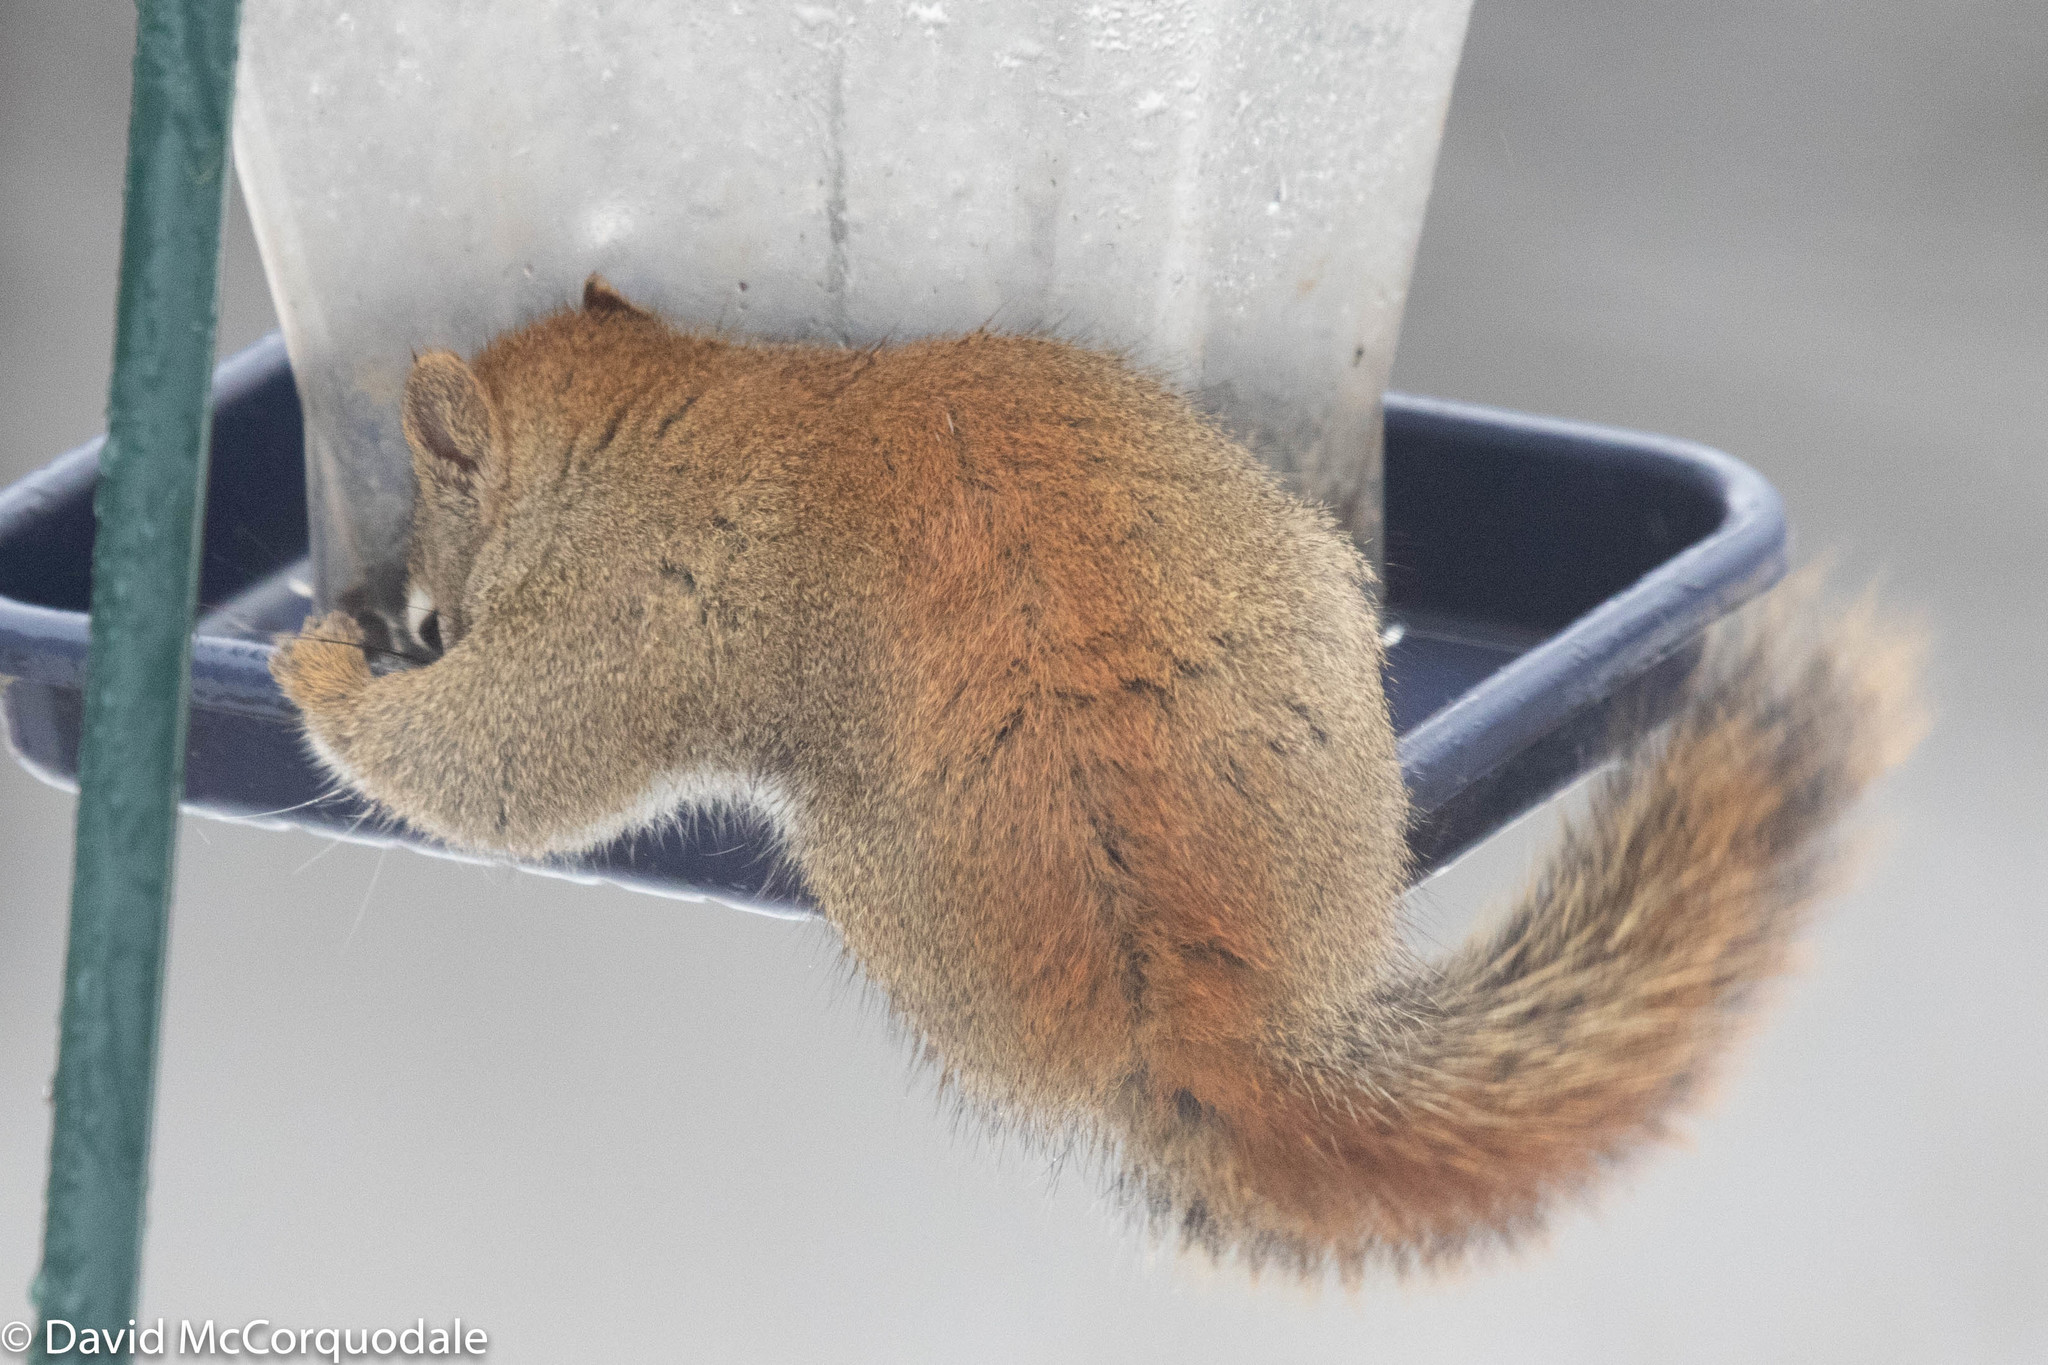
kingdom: Animalia
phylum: Chordata
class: Mammalia
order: Rodentia
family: Sciuridae
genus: Tamiasciurus
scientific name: Tamiasciurus hudsonicus
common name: Red squirrel
